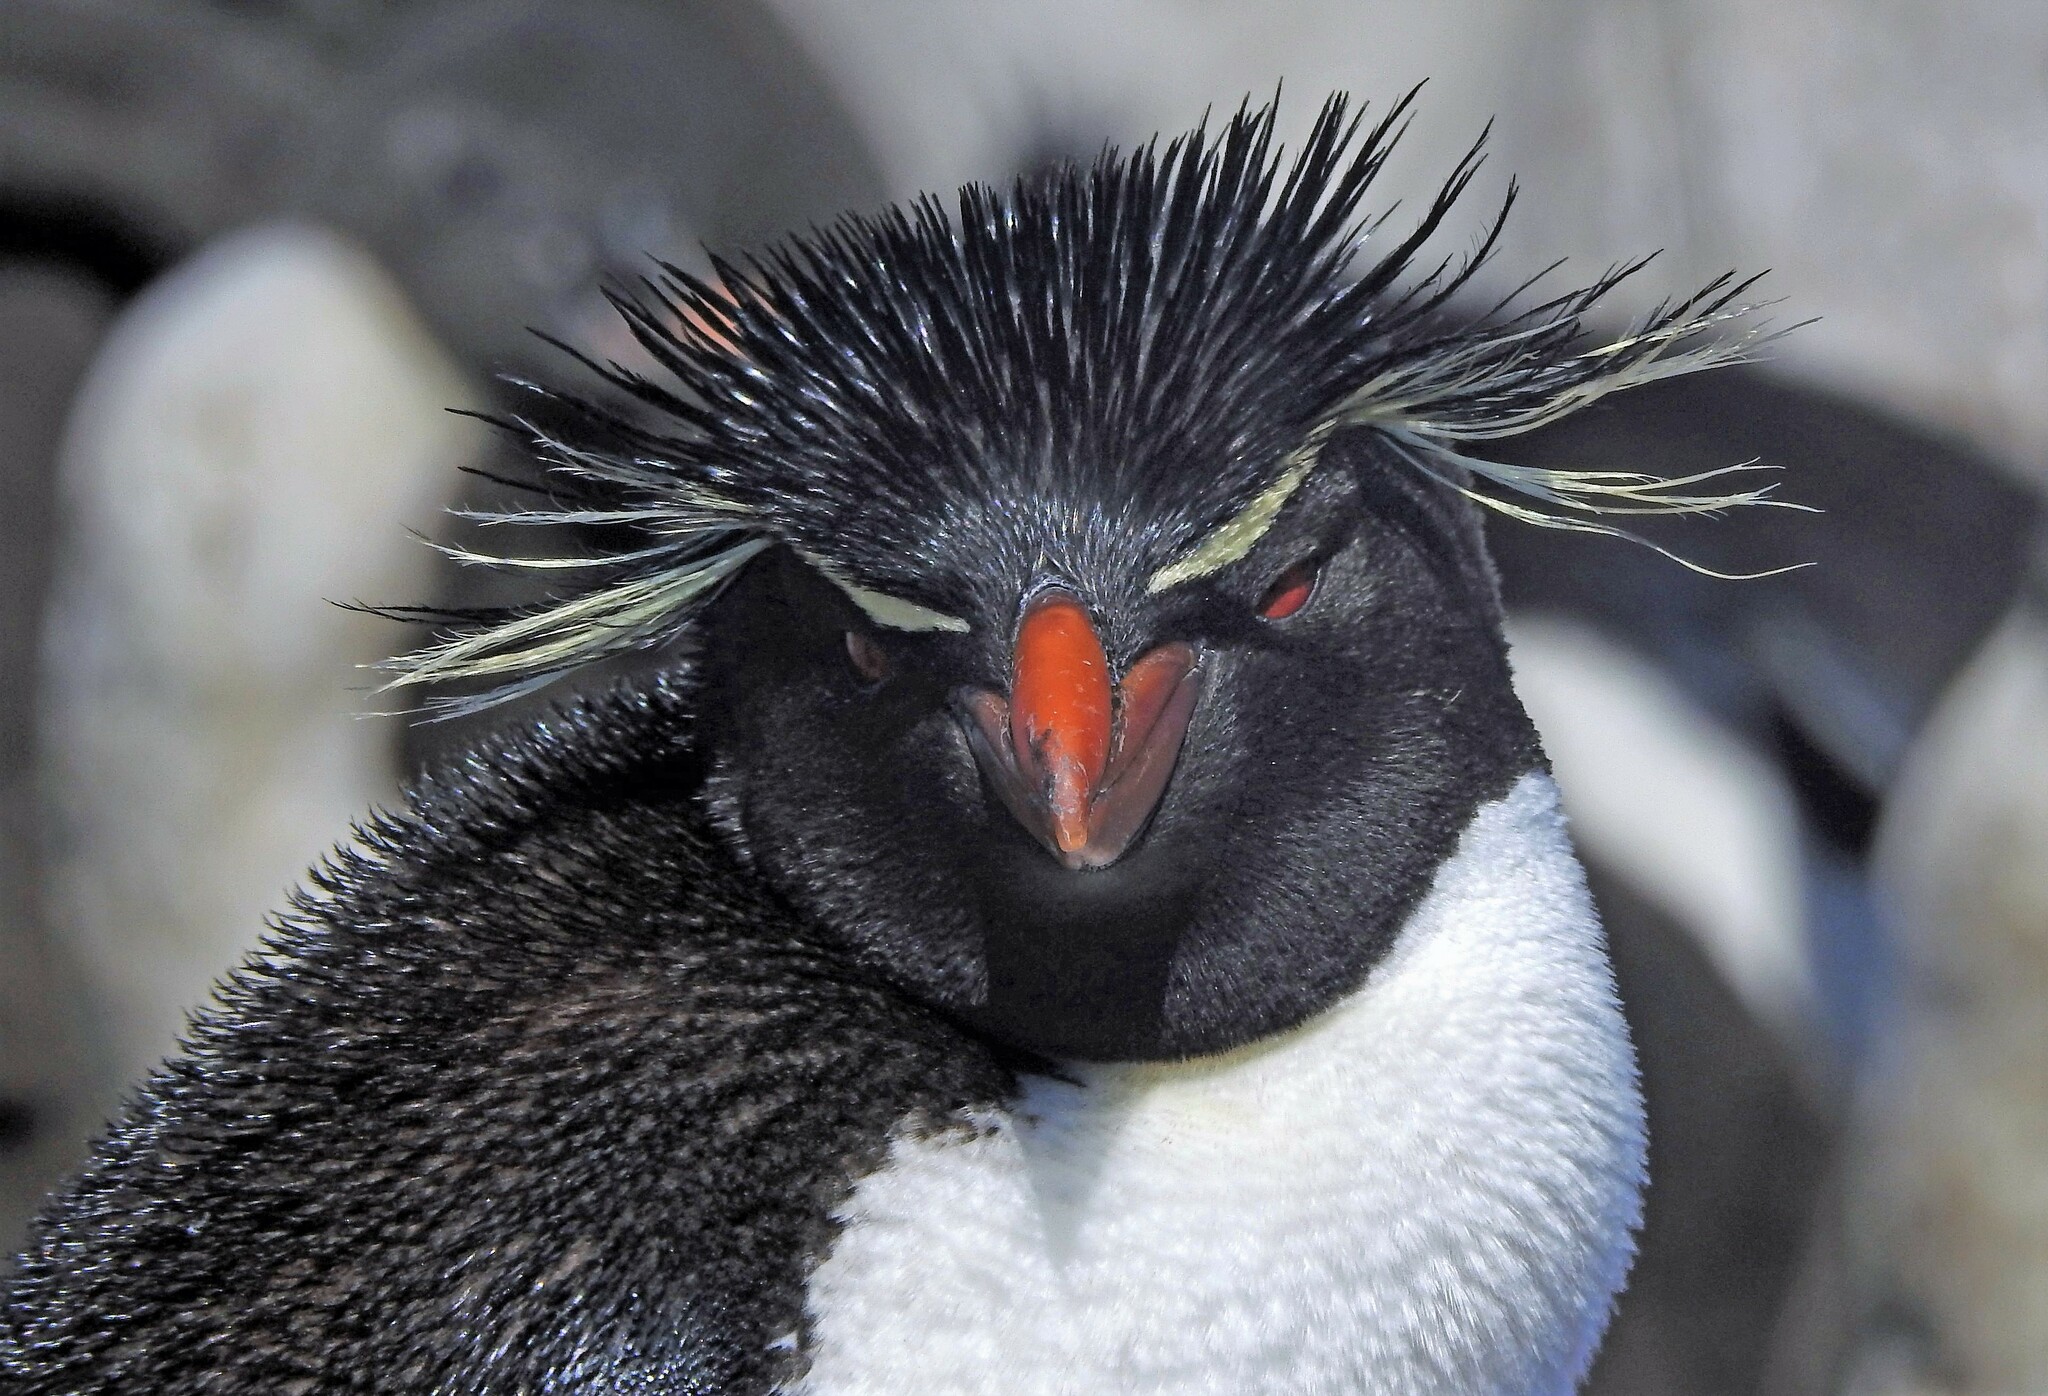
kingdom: Animalia
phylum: Chordata
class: Aves
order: Sphenisciformes
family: Spheniscidae
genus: Eudyptes
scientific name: Eudyptes chrysocome
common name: Southern rockhopper penguin
